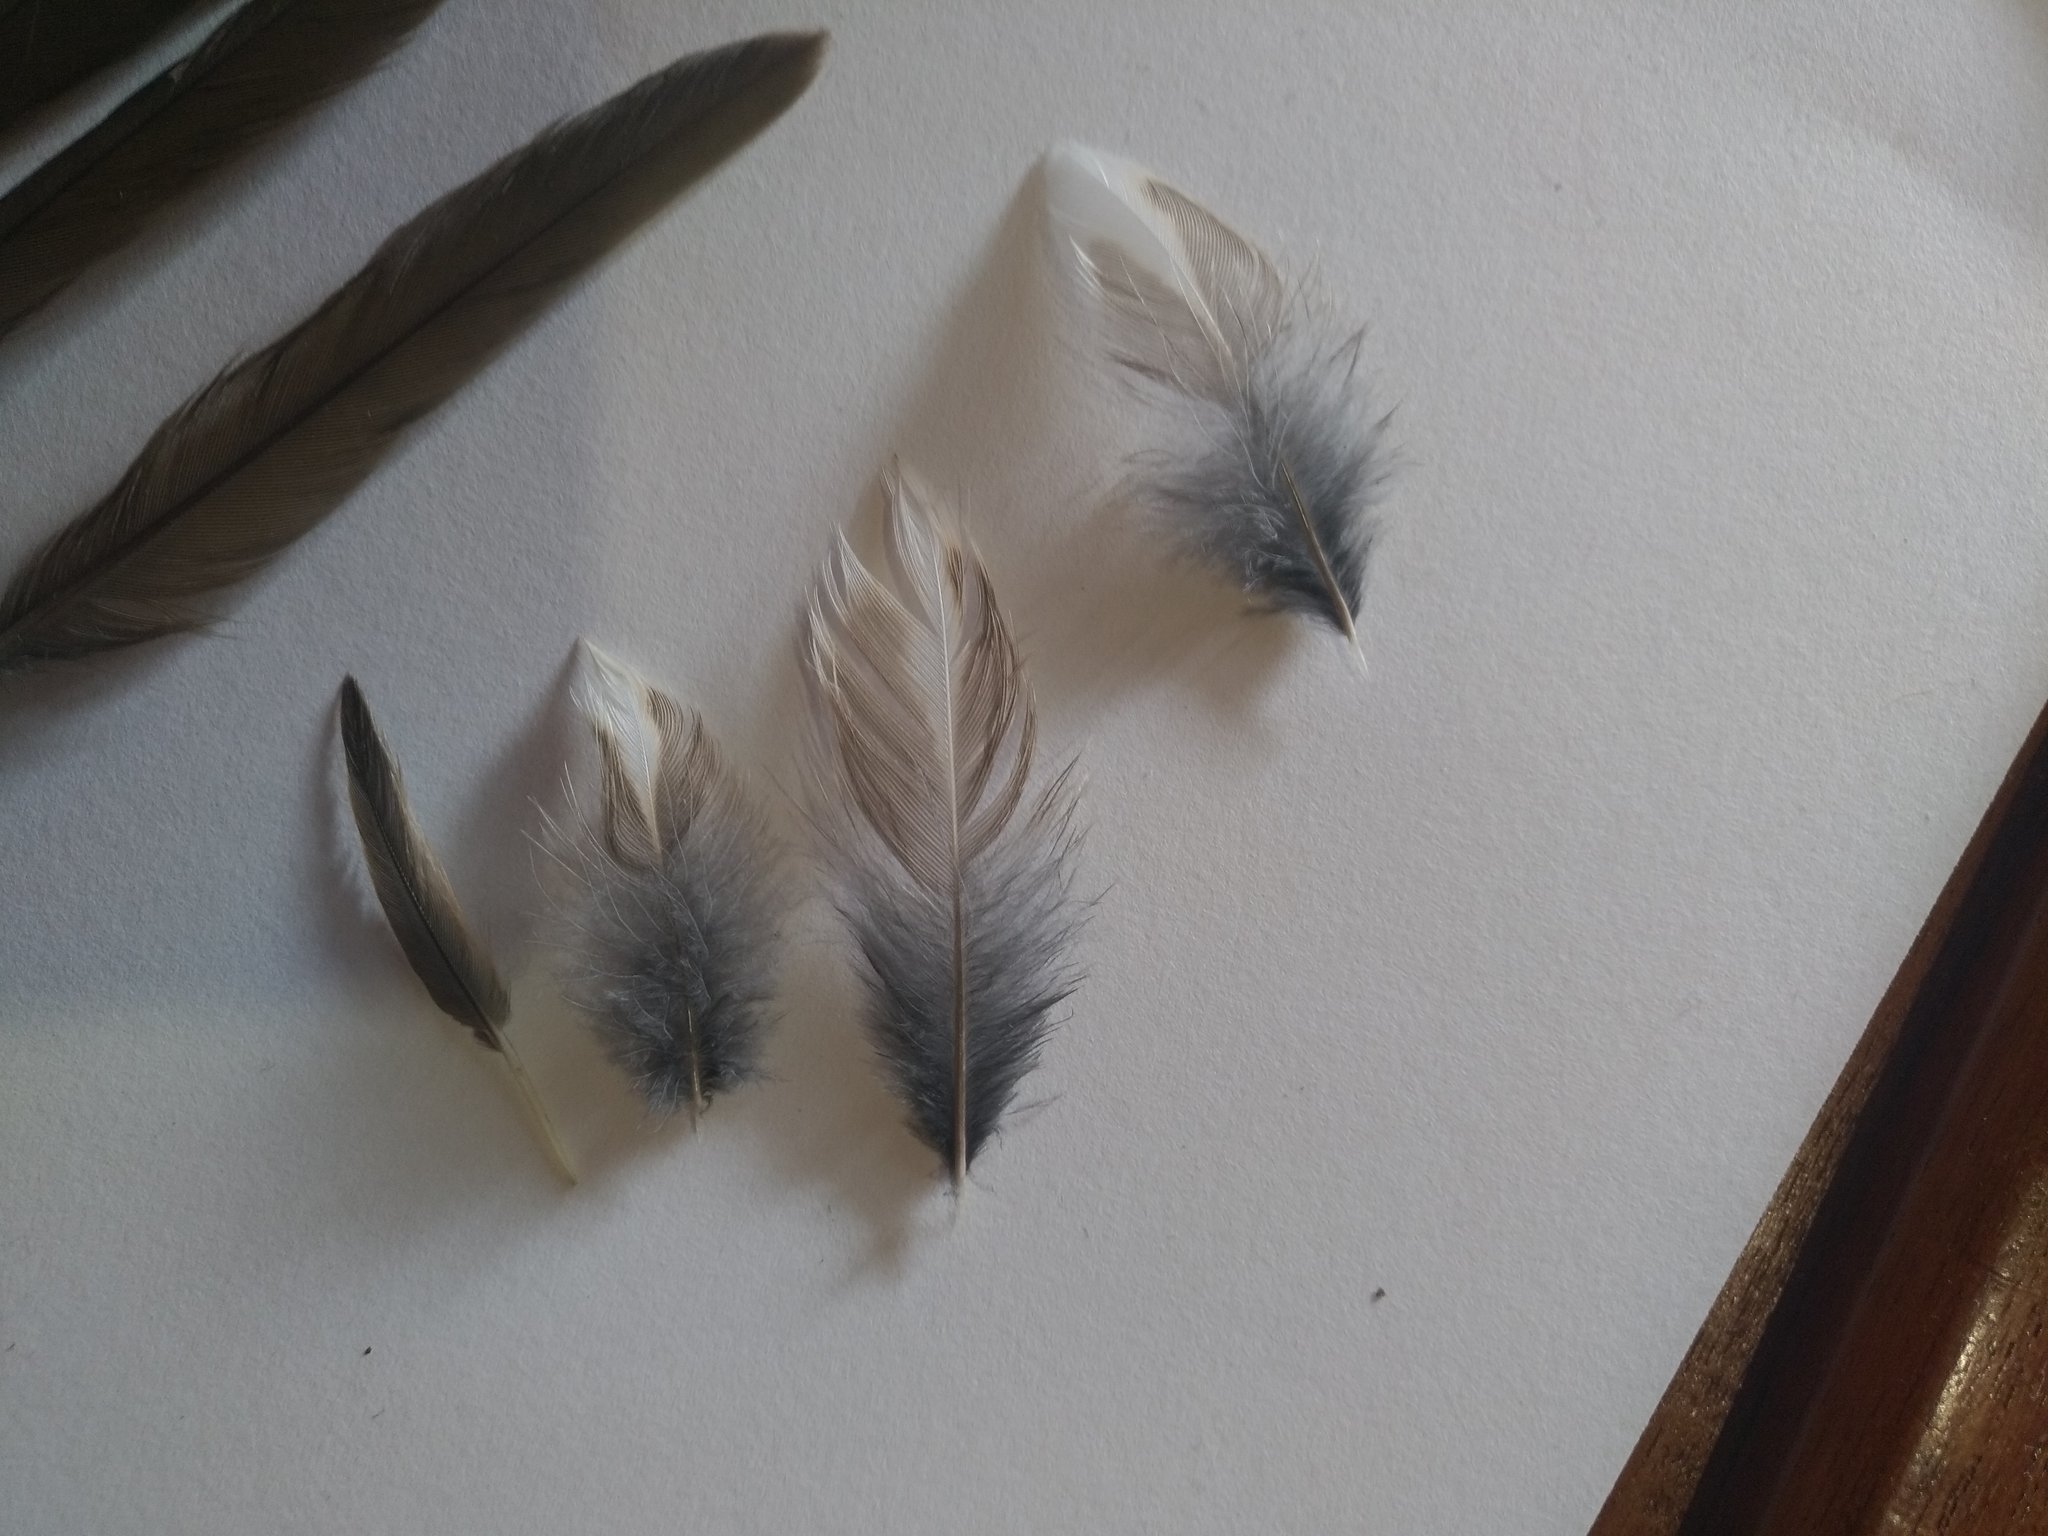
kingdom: Animalia
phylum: Chordata
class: Aves
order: Passeriformes
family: Turdidae
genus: Turdus
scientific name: Turdus iliacus
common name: Redwing
